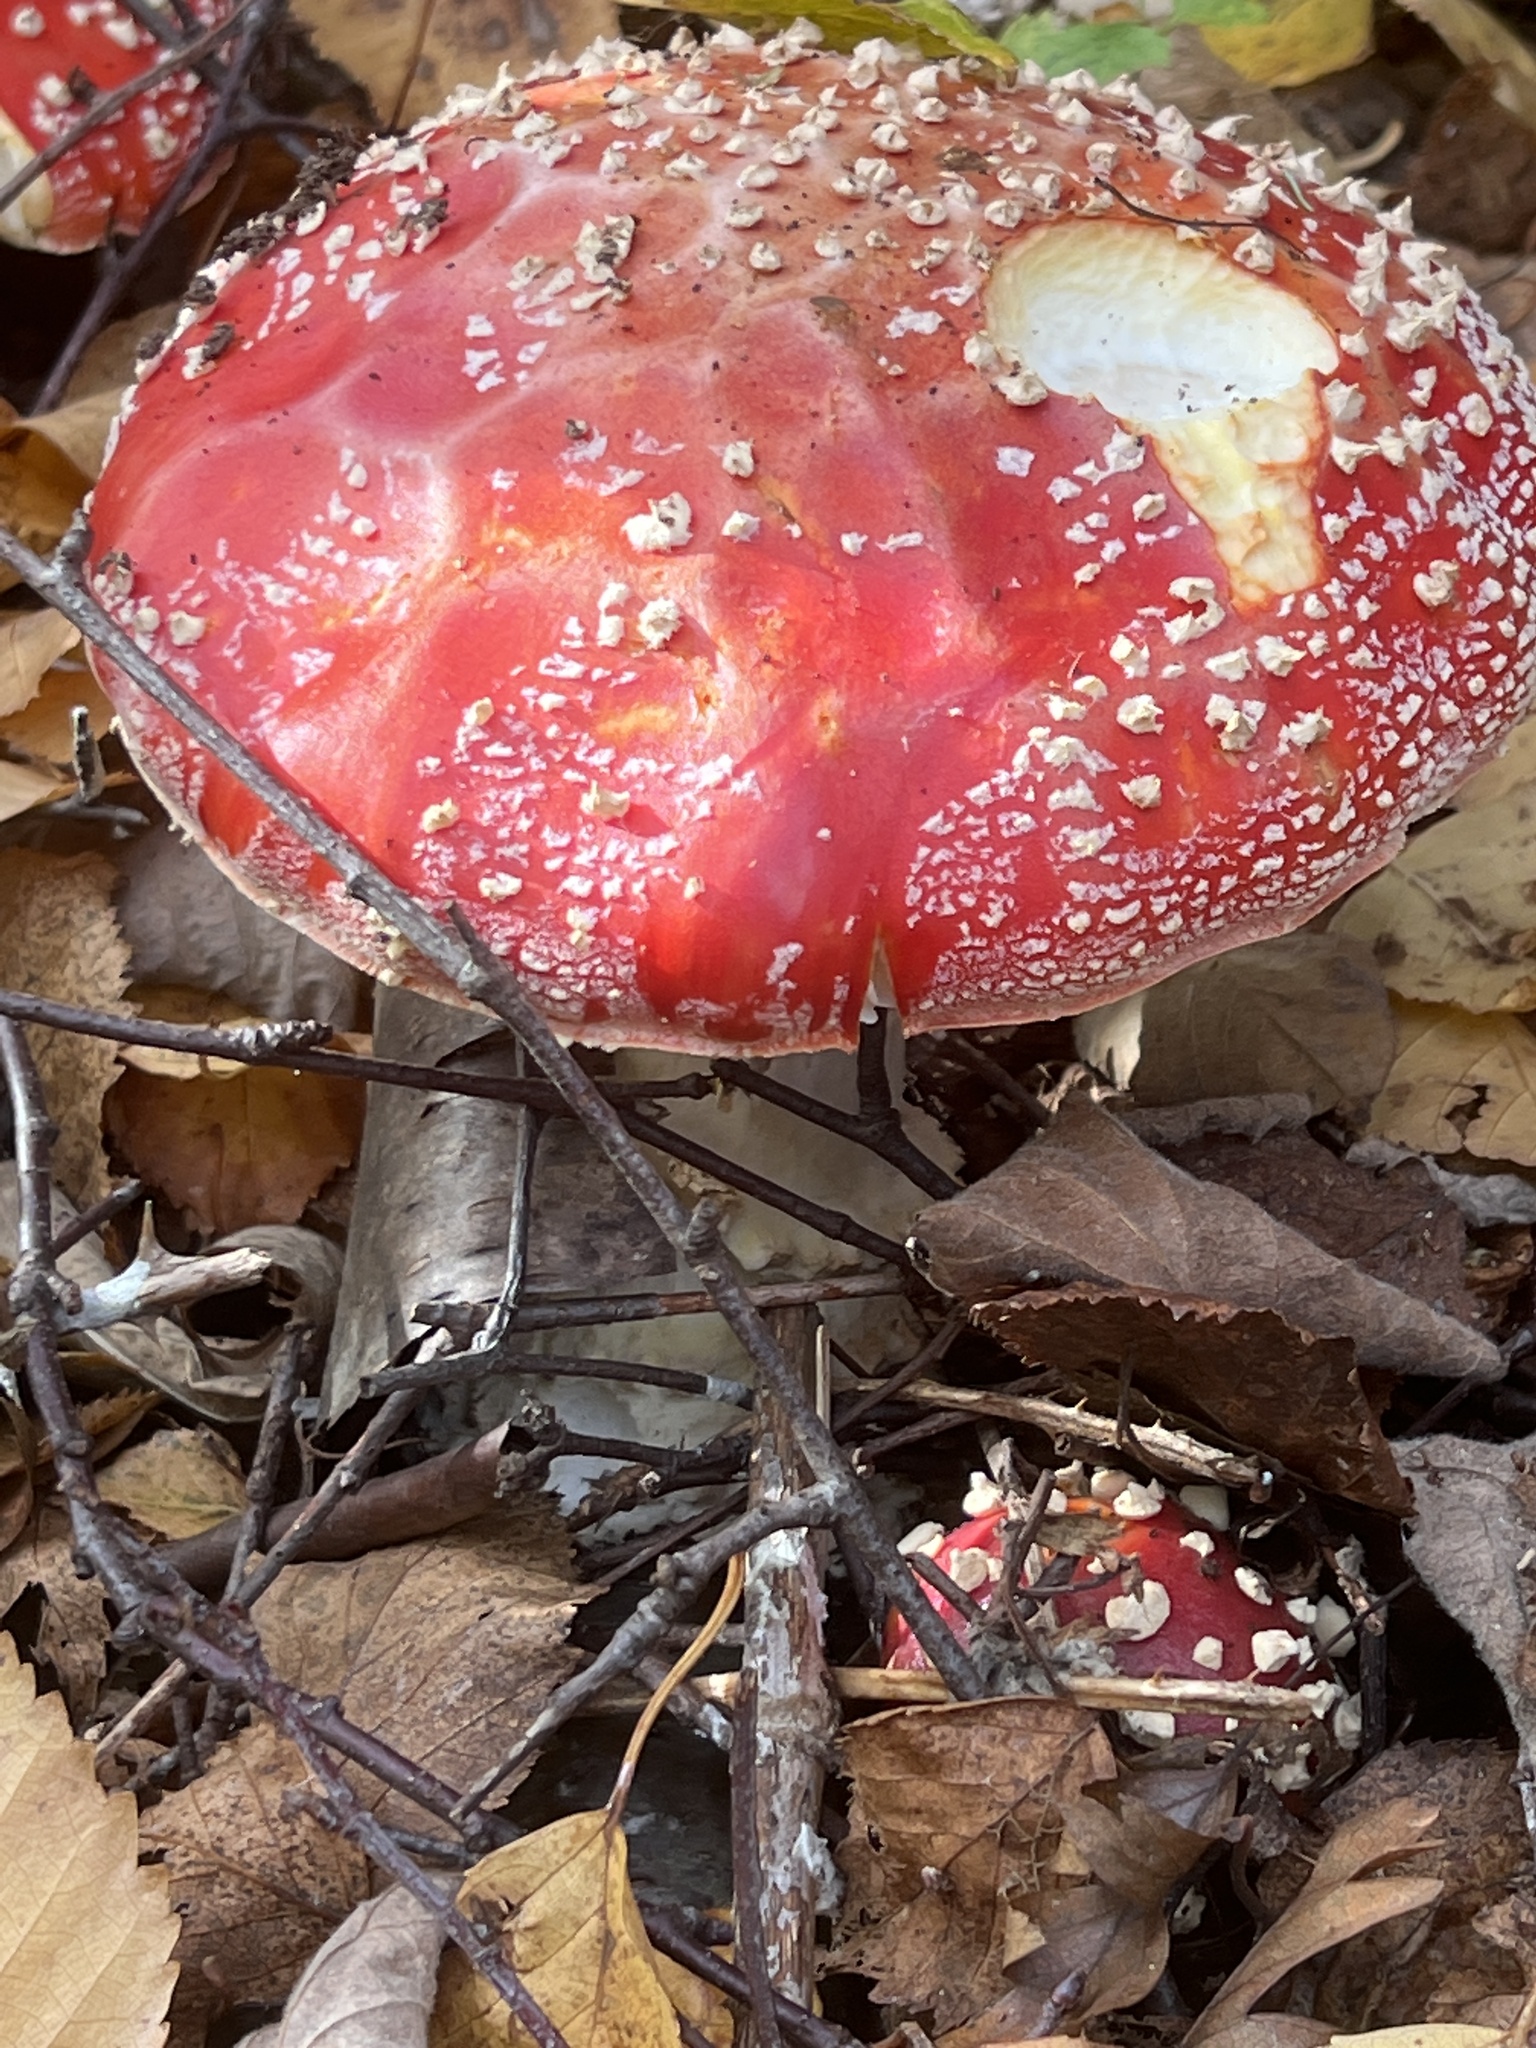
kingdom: Fungi
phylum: Basidiomycota
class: Agaricomycetes
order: Agaricales
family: Amanitaceae
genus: Amanita
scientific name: Amanita muscaria
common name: Fly agaric
